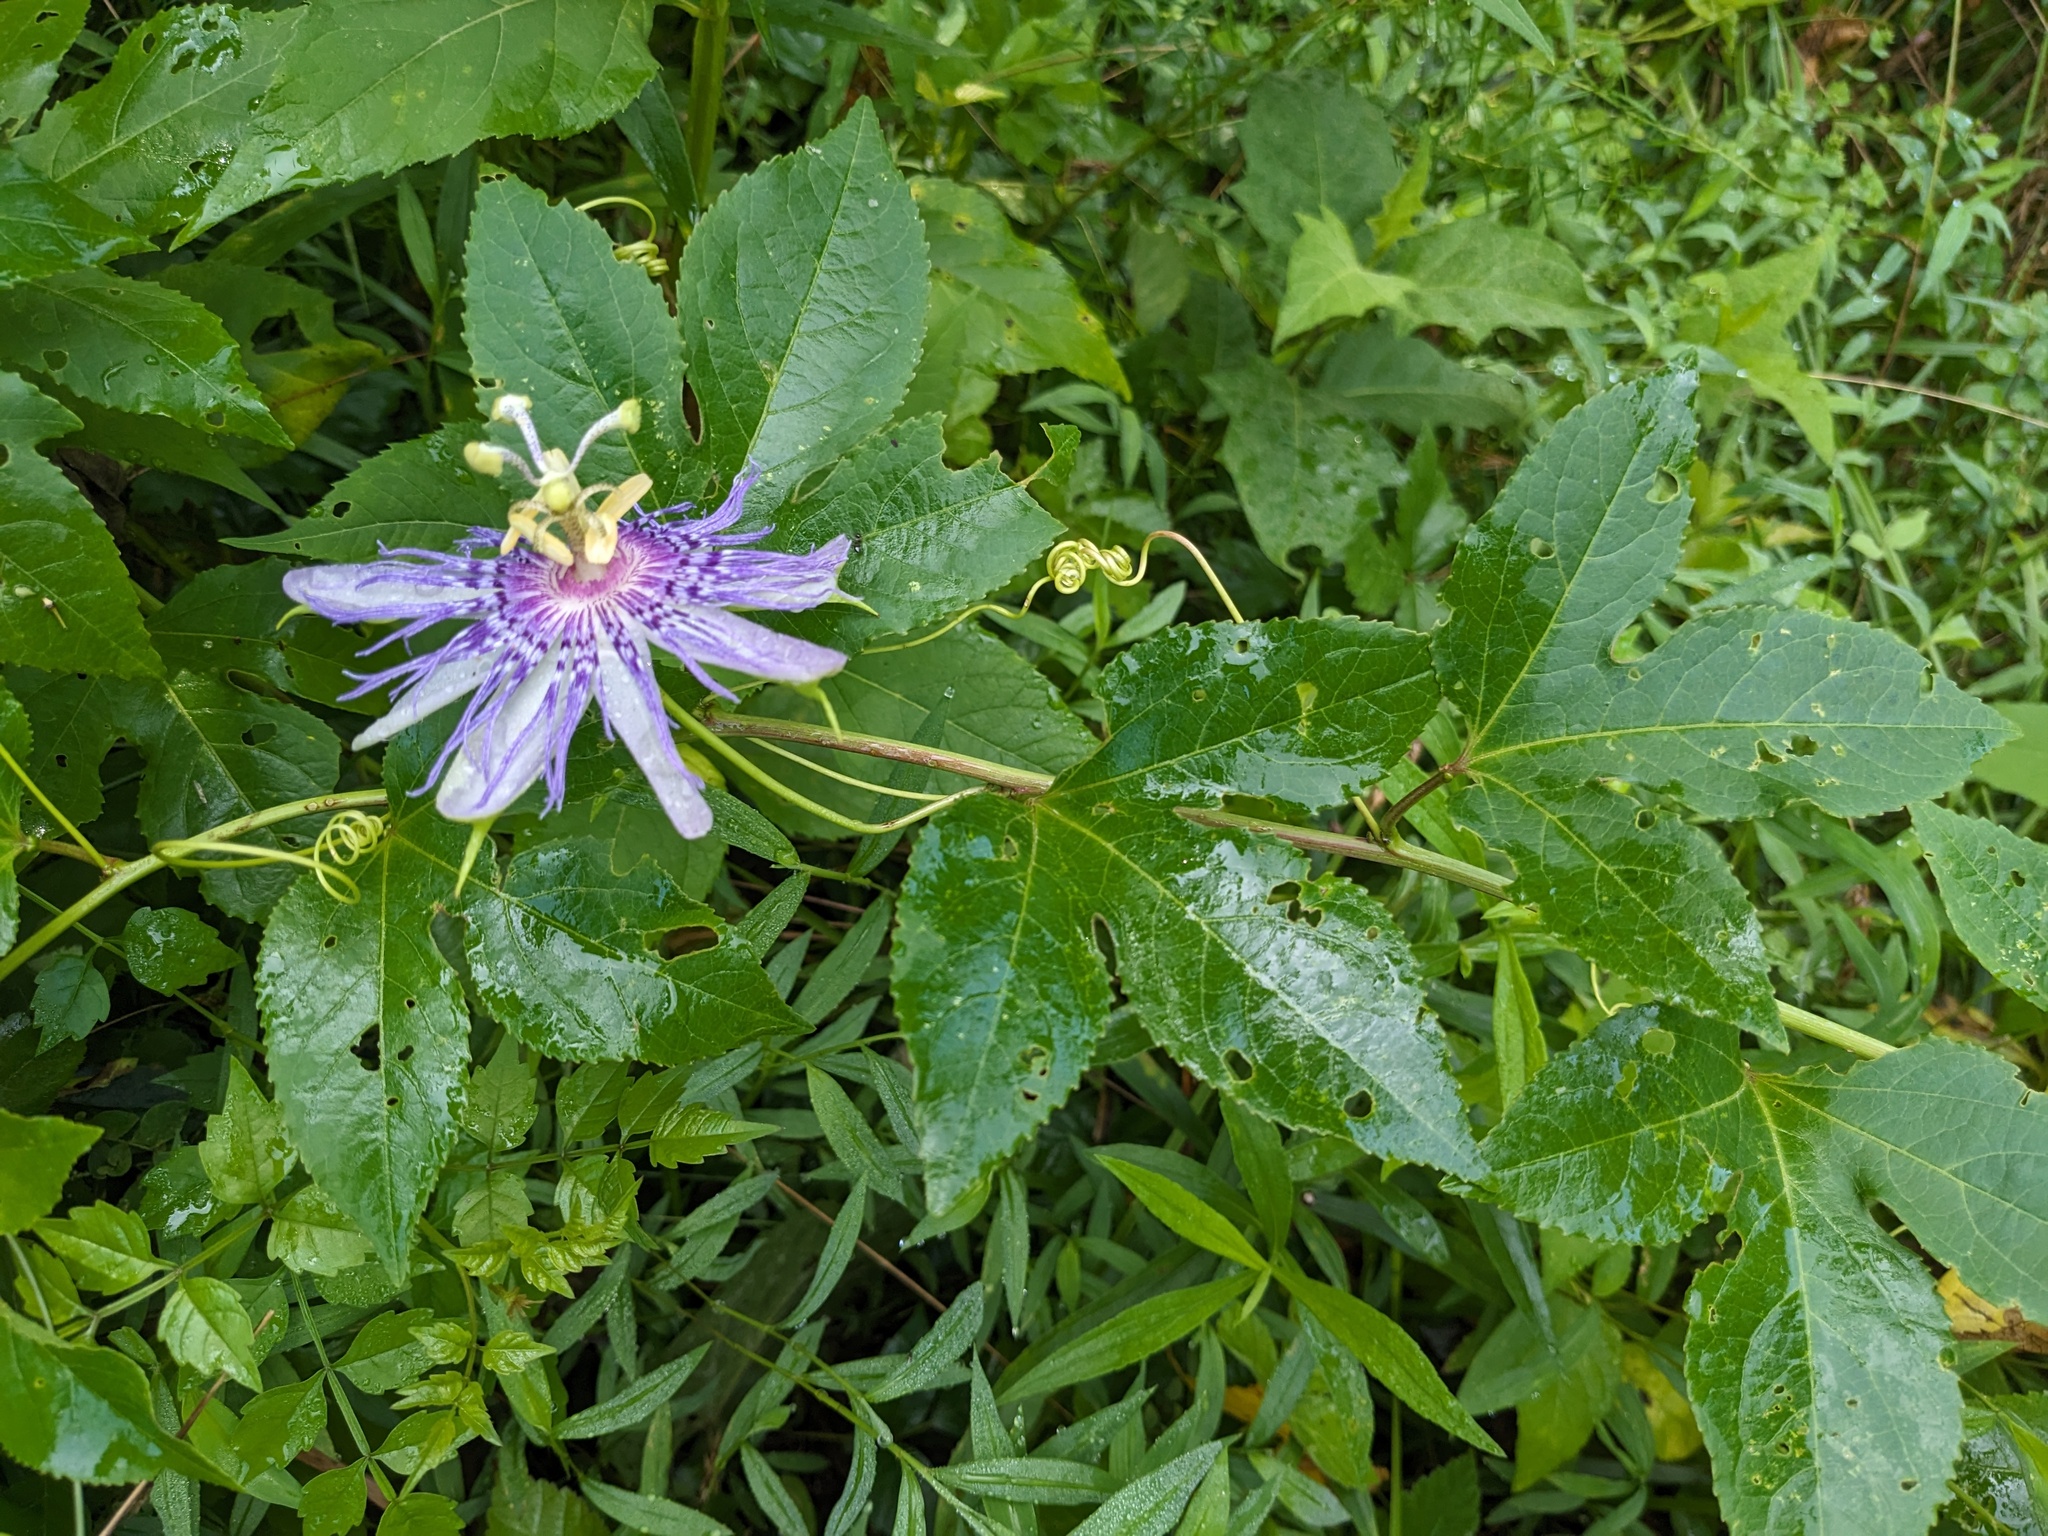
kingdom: Plantae
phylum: Tracheophyta
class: Magnoliopsida
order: Malpighiales
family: Passifloraceae
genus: Passiflora
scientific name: Passiflora incarnata
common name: Apricot-vine
